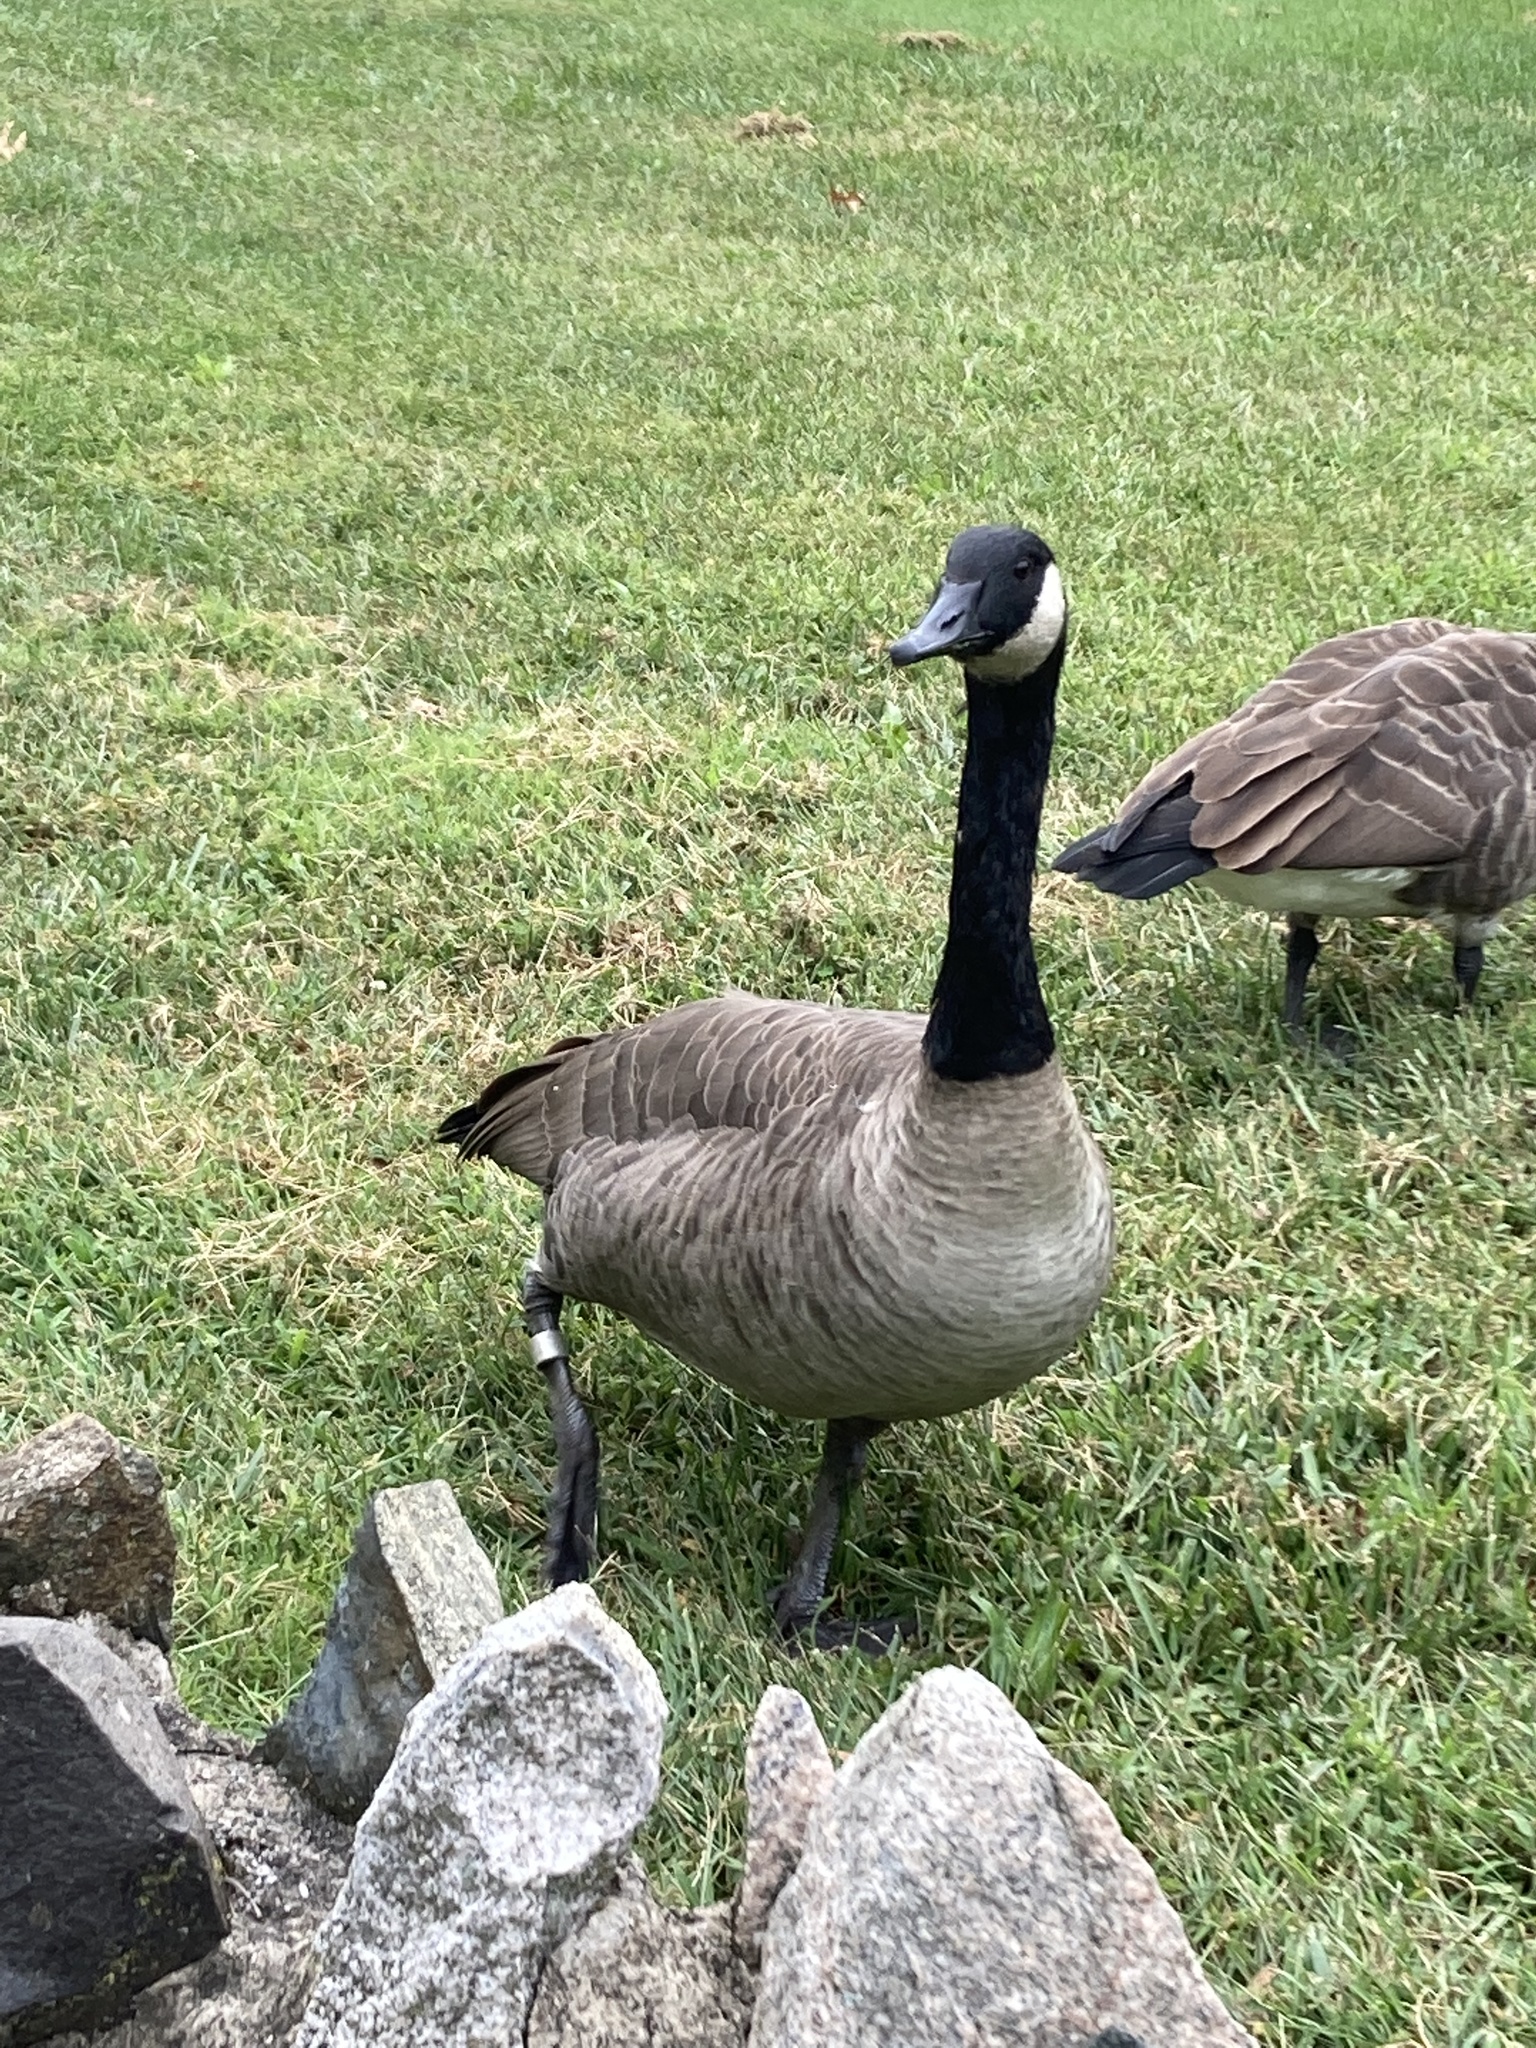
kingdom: Animalia
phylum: Chordata
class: Aves
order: Anseriformes
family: Anatidae
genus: Branta
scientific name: Branta canadensis
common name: Canada goose
